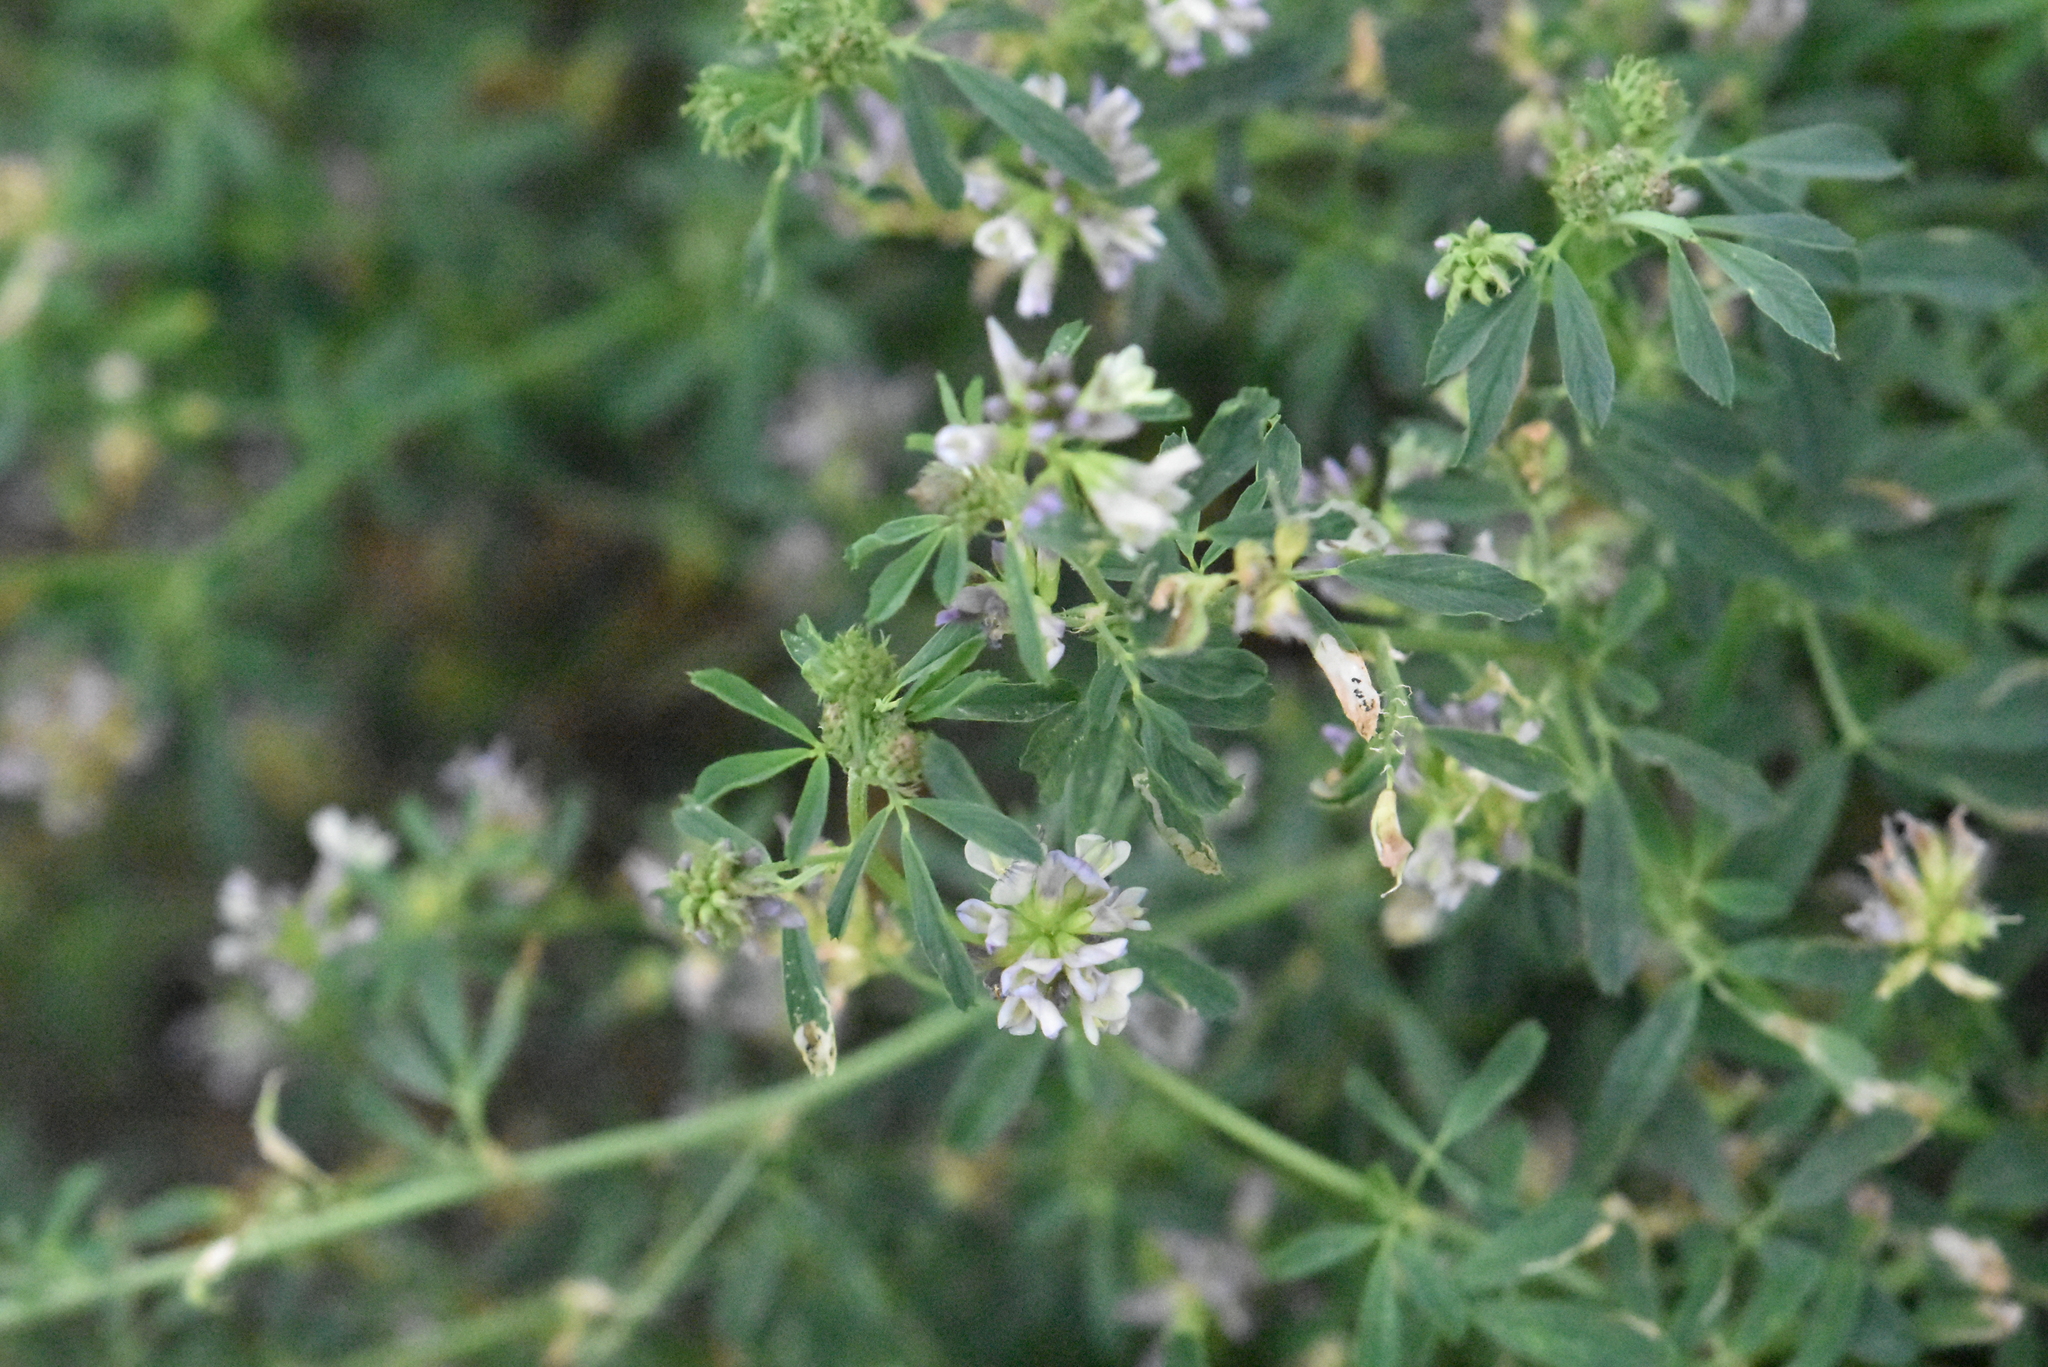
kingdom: Plantae
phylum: Tracheophyta
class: Magnoliopsida
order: Fabales
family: Fabaceae
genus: Medicago
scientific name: Medicago varia
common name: Sand lucerne
